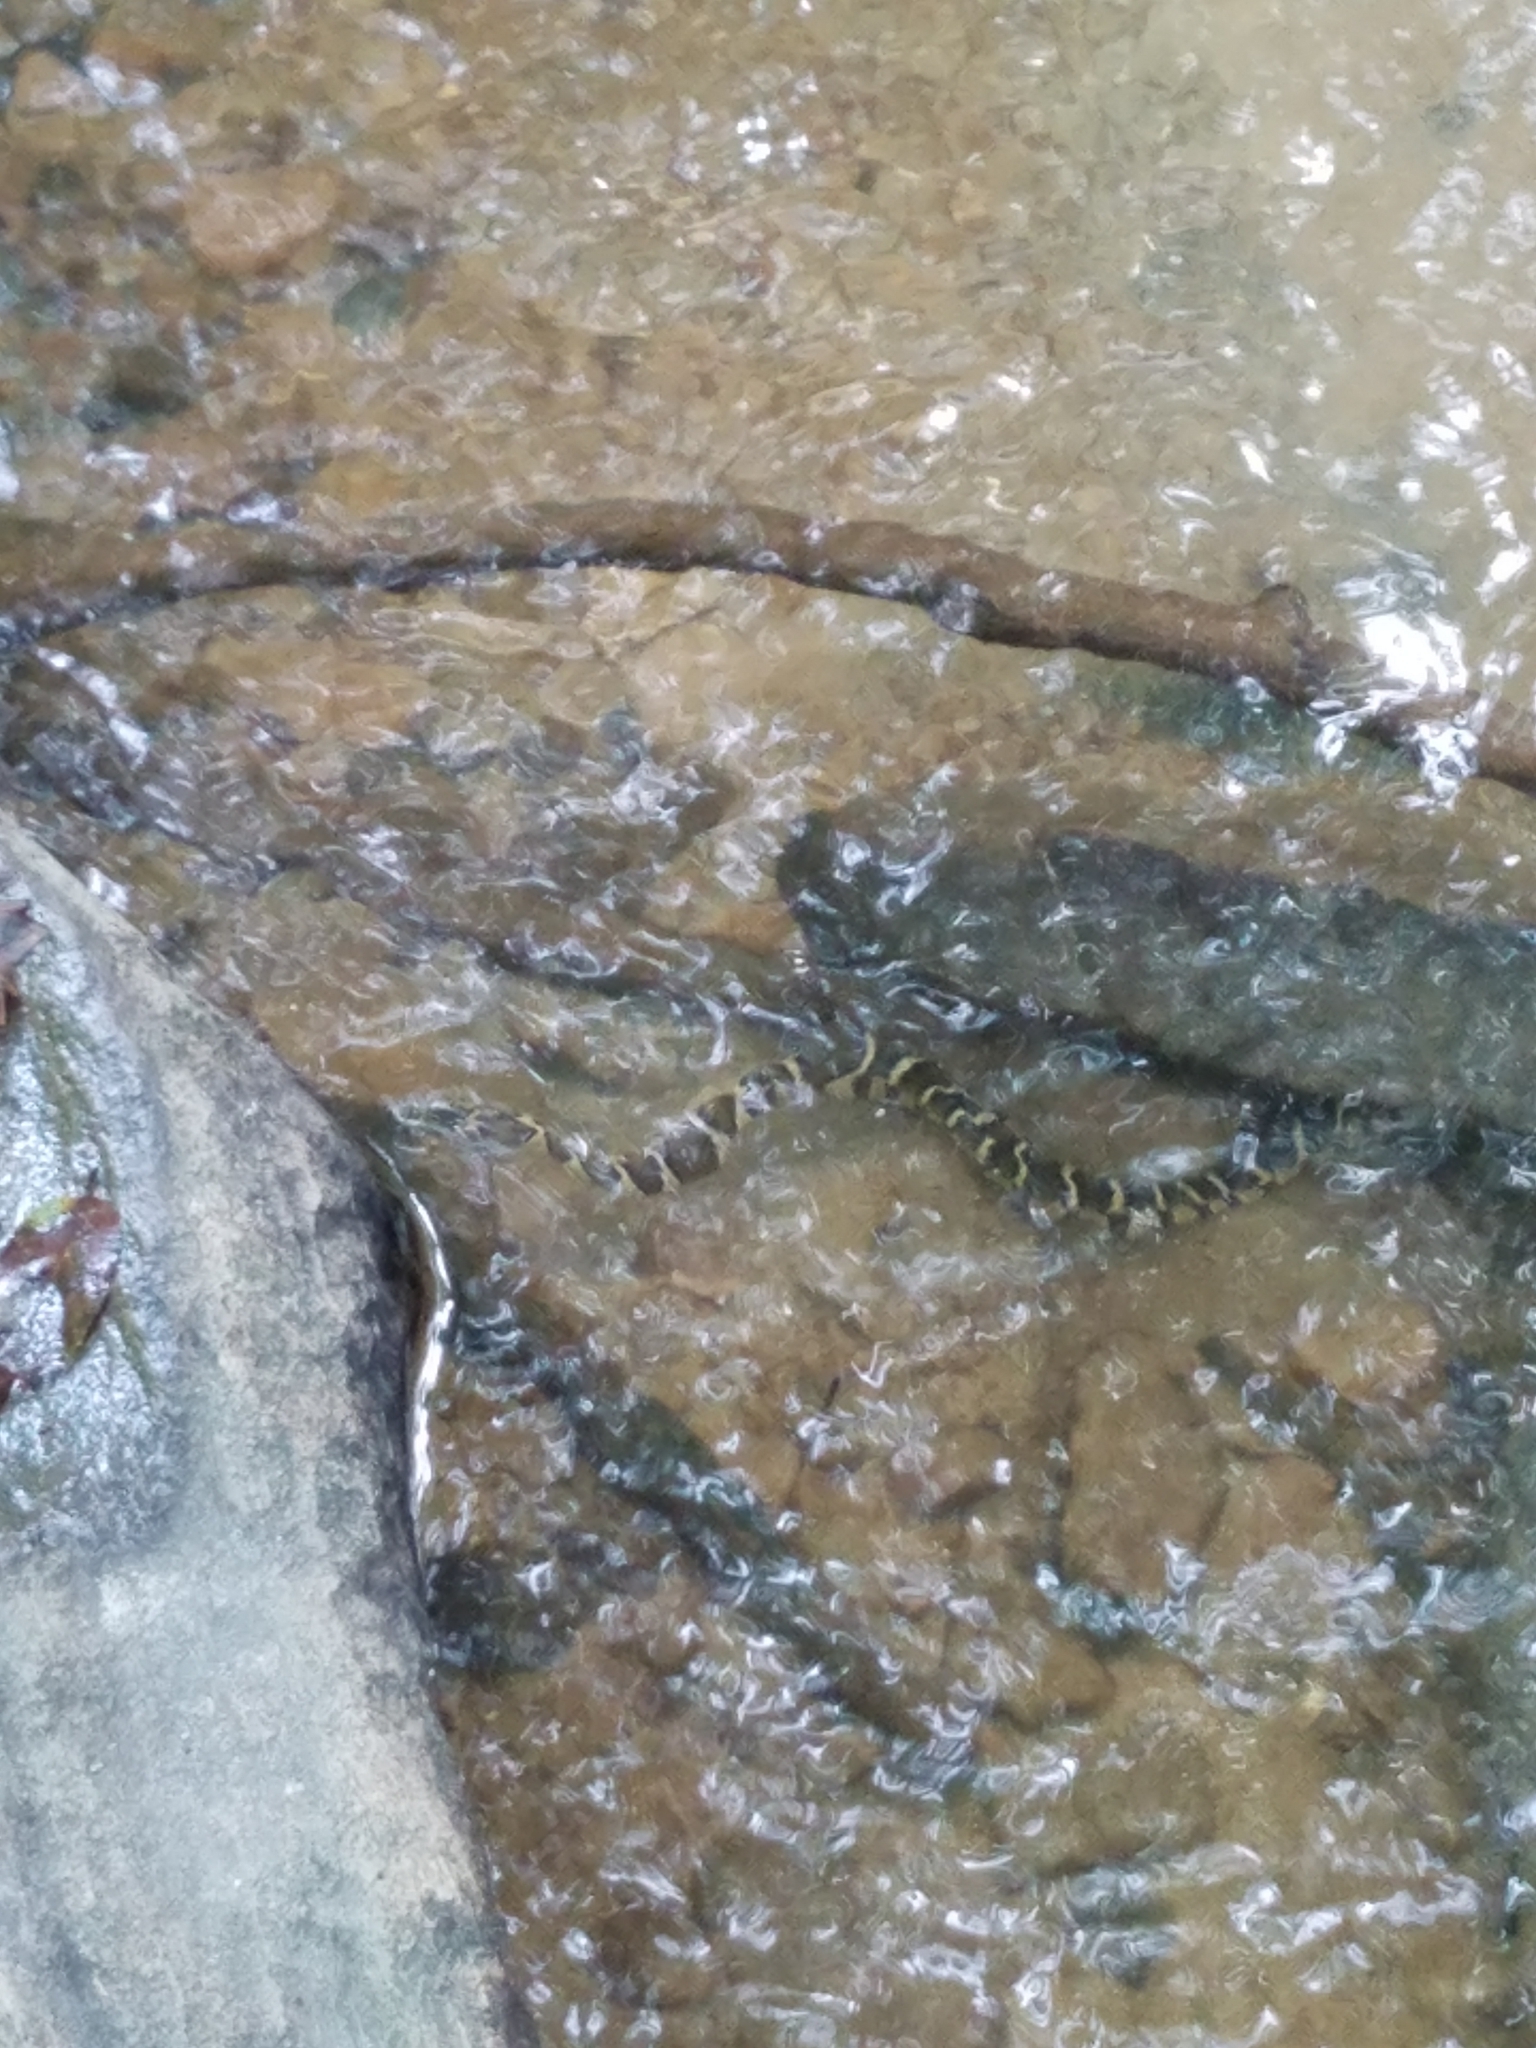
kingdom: Animalia
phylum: Chordata
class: Squamata
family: Colubridae
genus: Nerodia
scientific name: Nerodia sipedon
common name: Northern water snake
